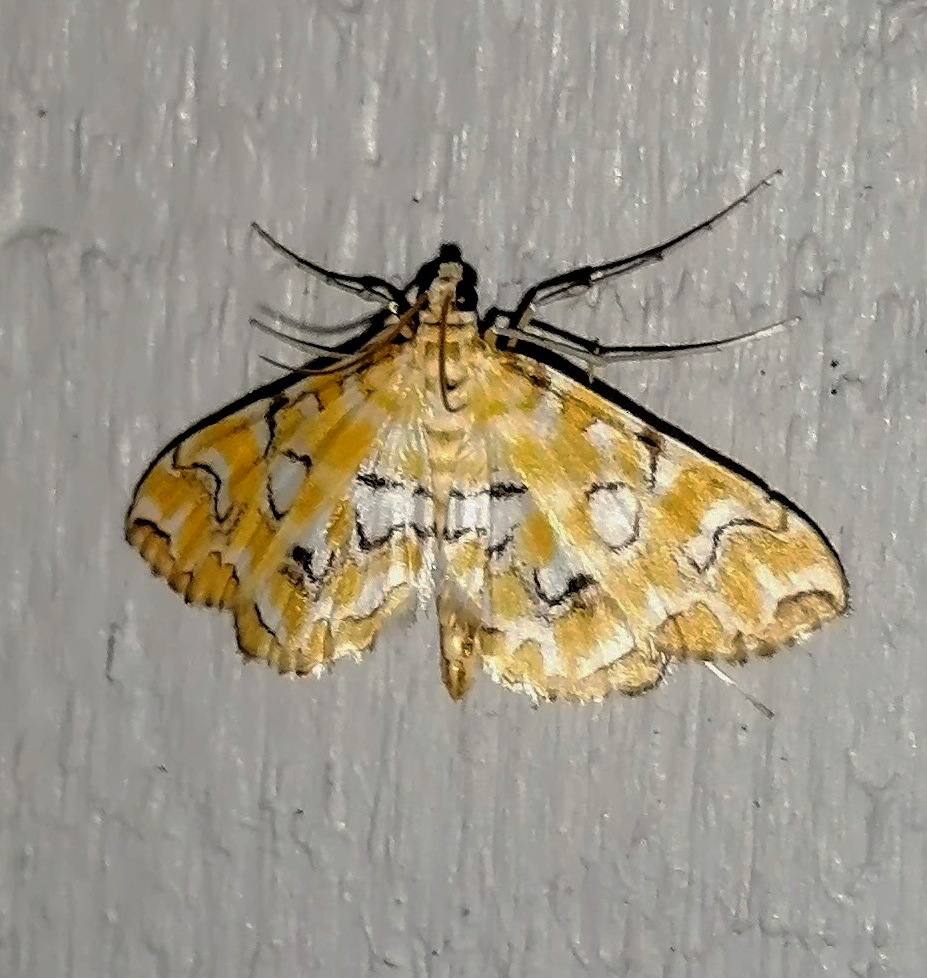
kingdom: Animalia
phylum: Arthropoda
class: Insecta
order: Lepidoptera
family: Crambidae
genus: Elophila
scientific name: Elophila icciusalis
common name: Pondside pyralid moth
